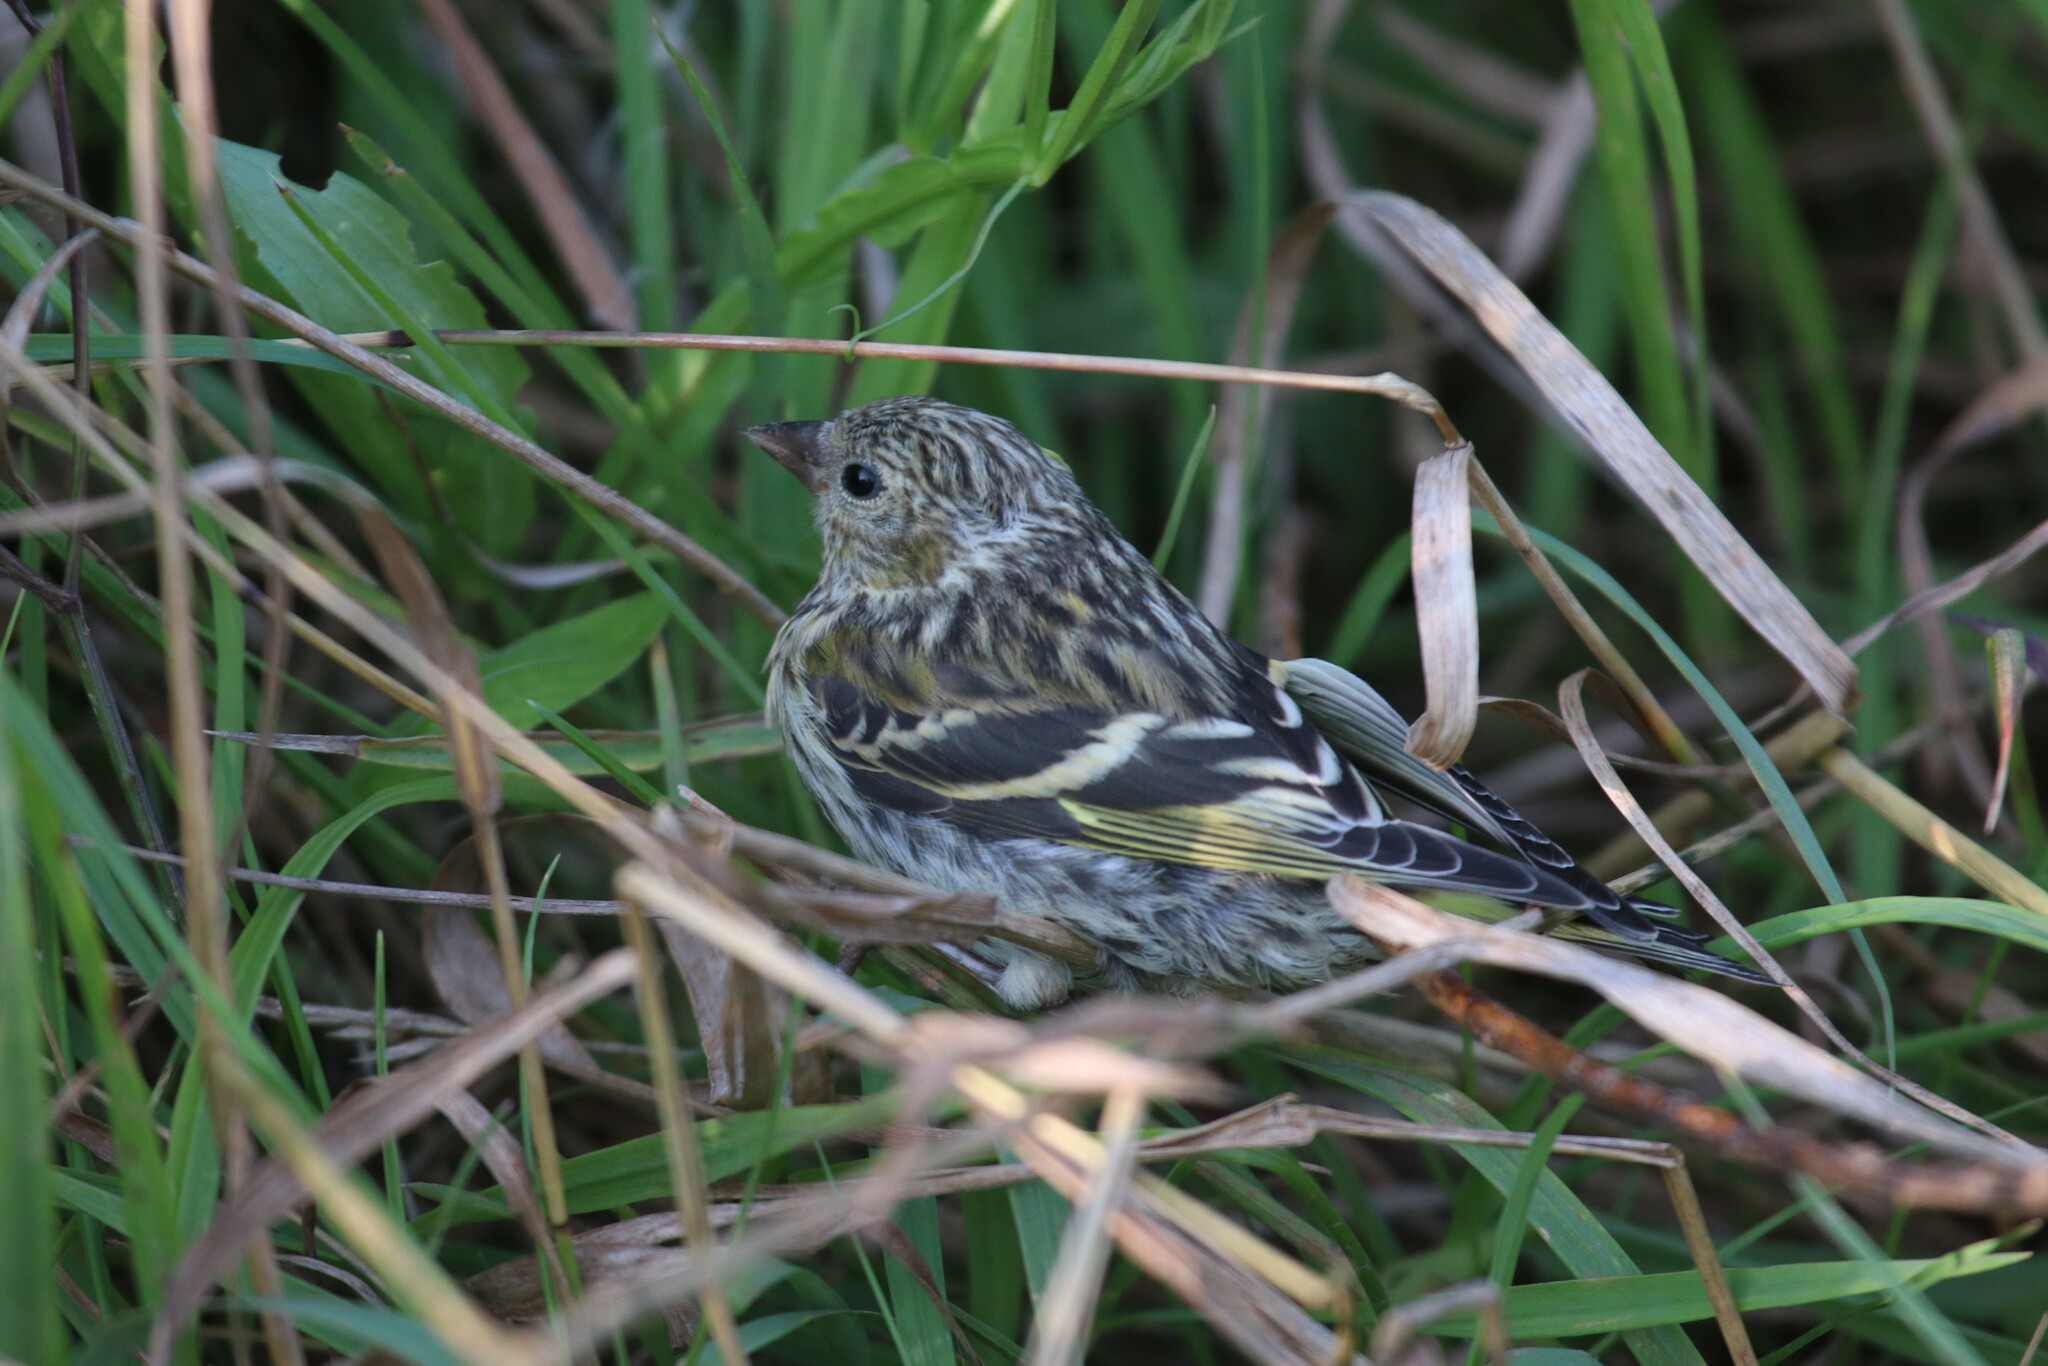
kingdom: Animalia
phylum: Chordata
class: Aves
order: Passeriformes
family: Fringillidae
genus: Spinus
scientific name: Spinus spinus
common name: Eurasian siskin
